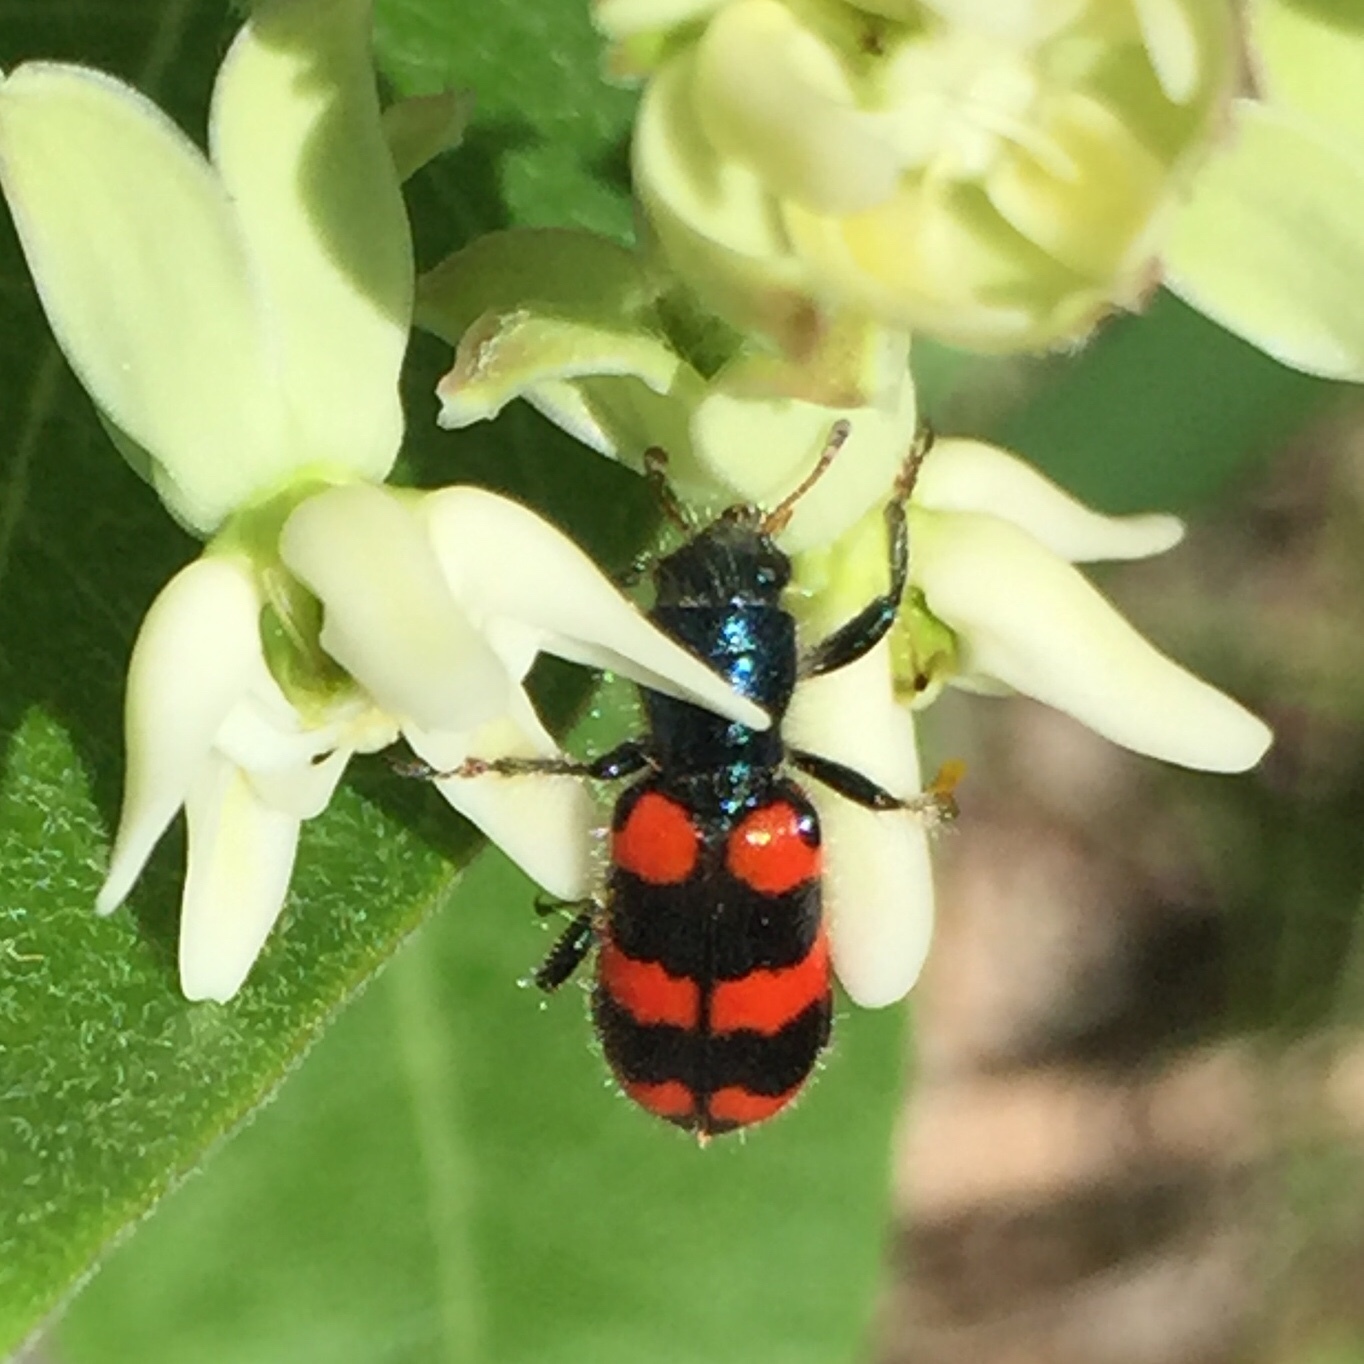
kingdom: Animalia
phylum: Arthropoda
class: Insecta
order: Coleoptera
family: Cleridae
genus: Trichodes
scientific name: Trichodes nutalli
